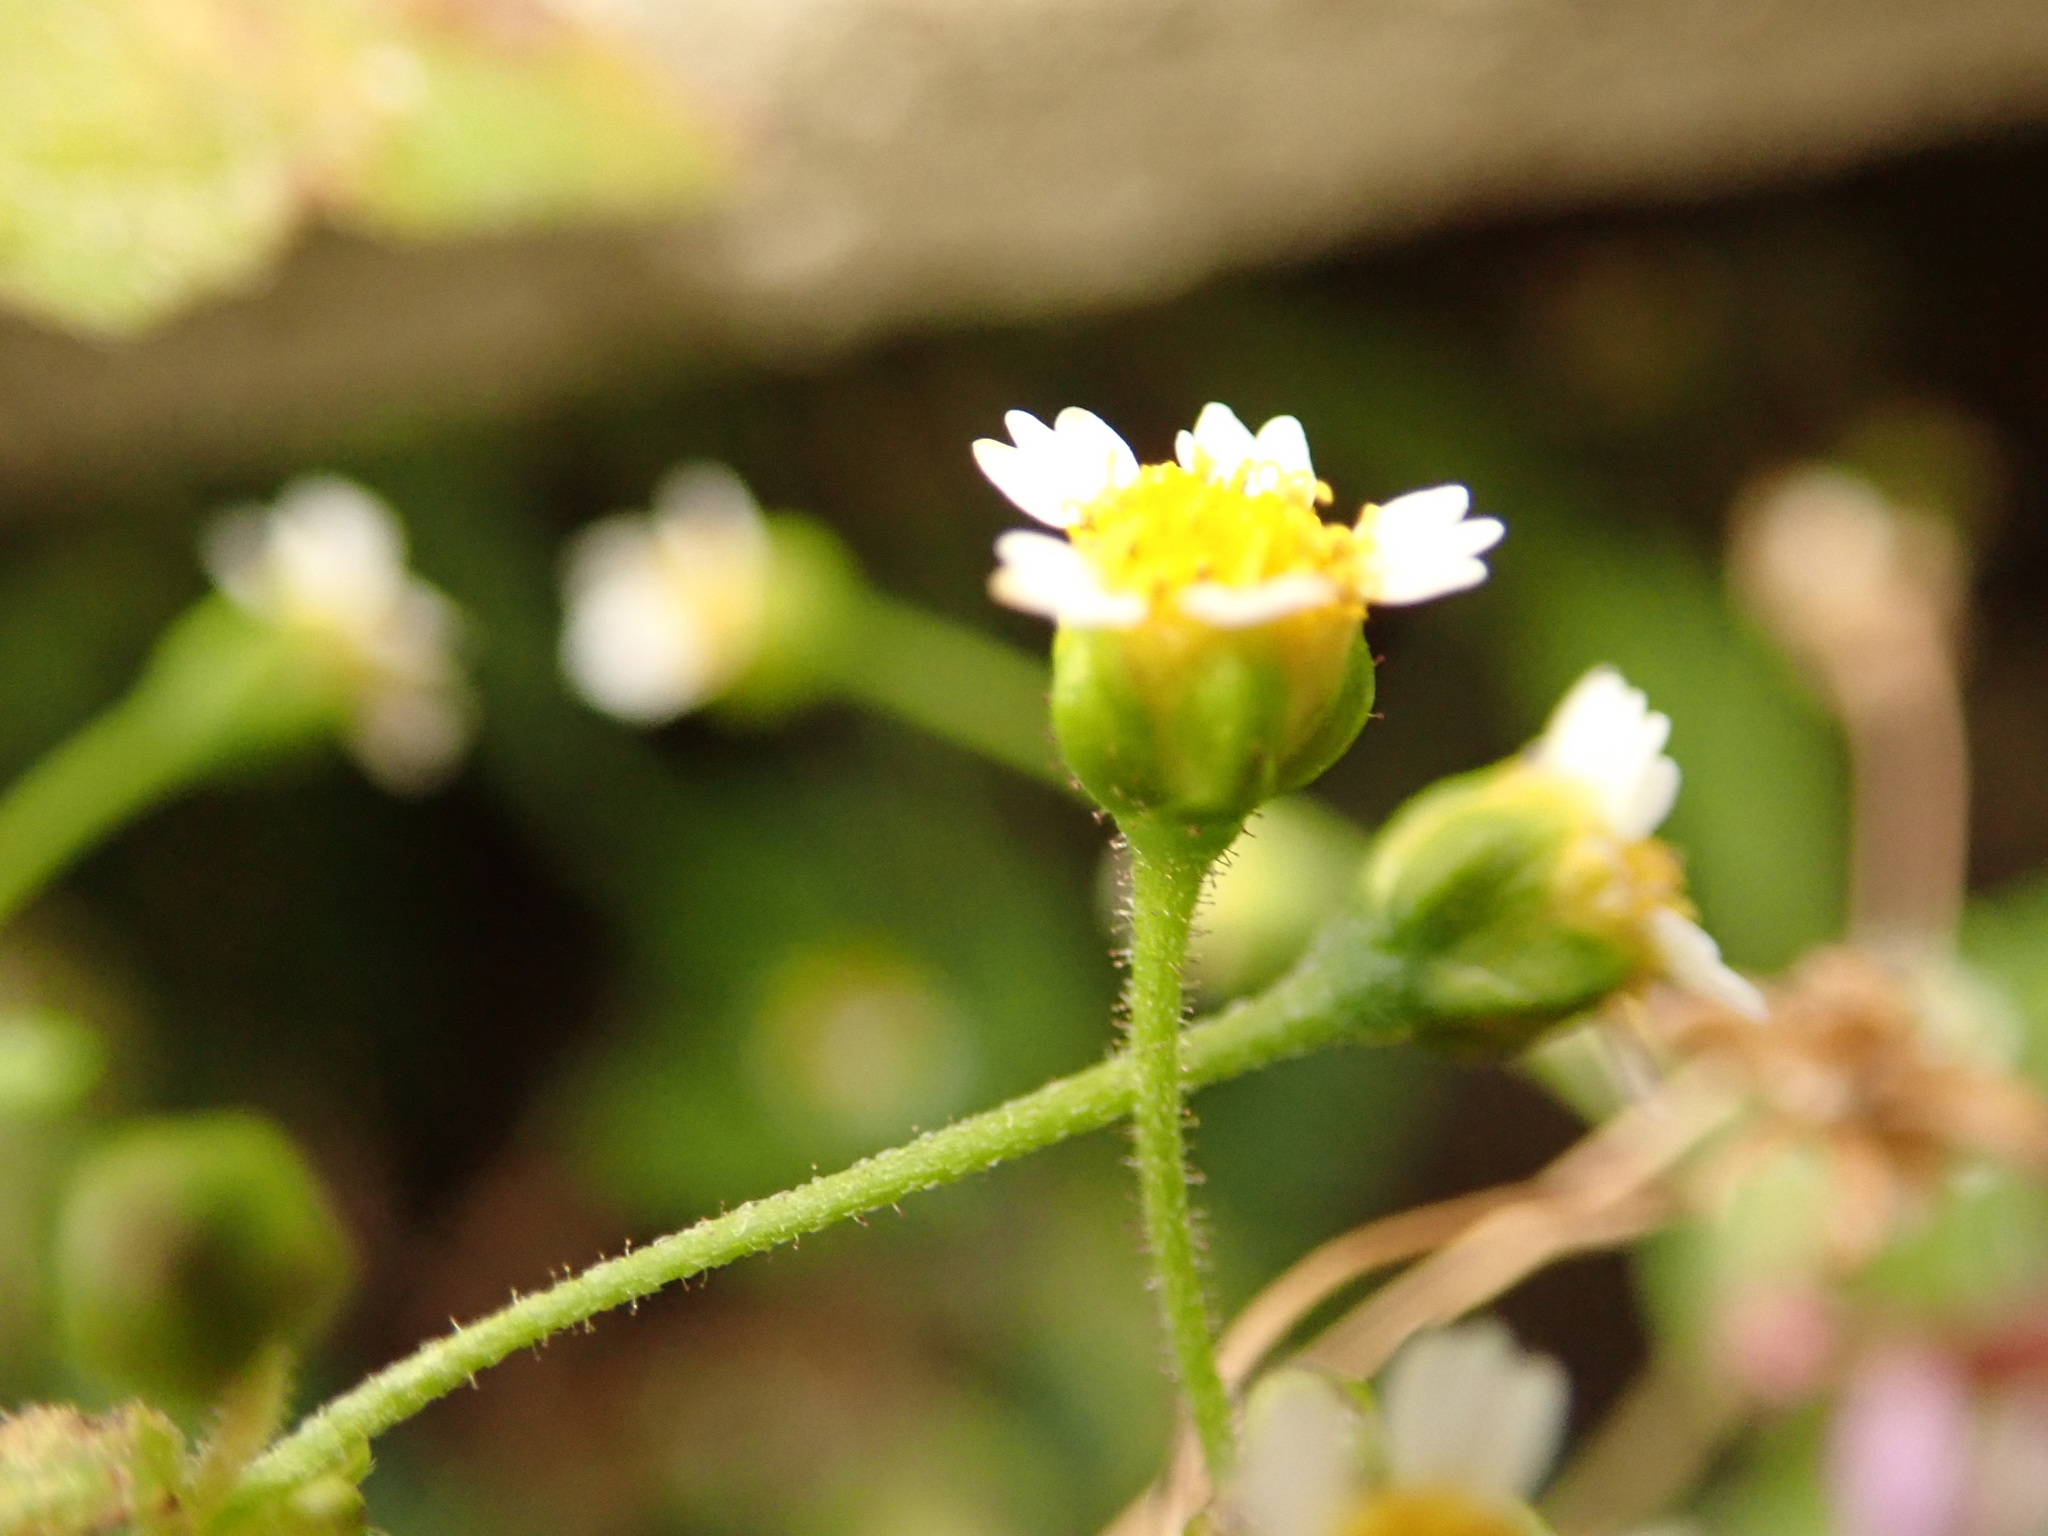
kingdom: Plantae
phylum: Tracheophyta
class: Magnoliopsida
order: Asterales
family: Asteraceae
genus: Galinsoga
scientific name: Galinsoga quadriradiata
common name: Shaggy soldier
